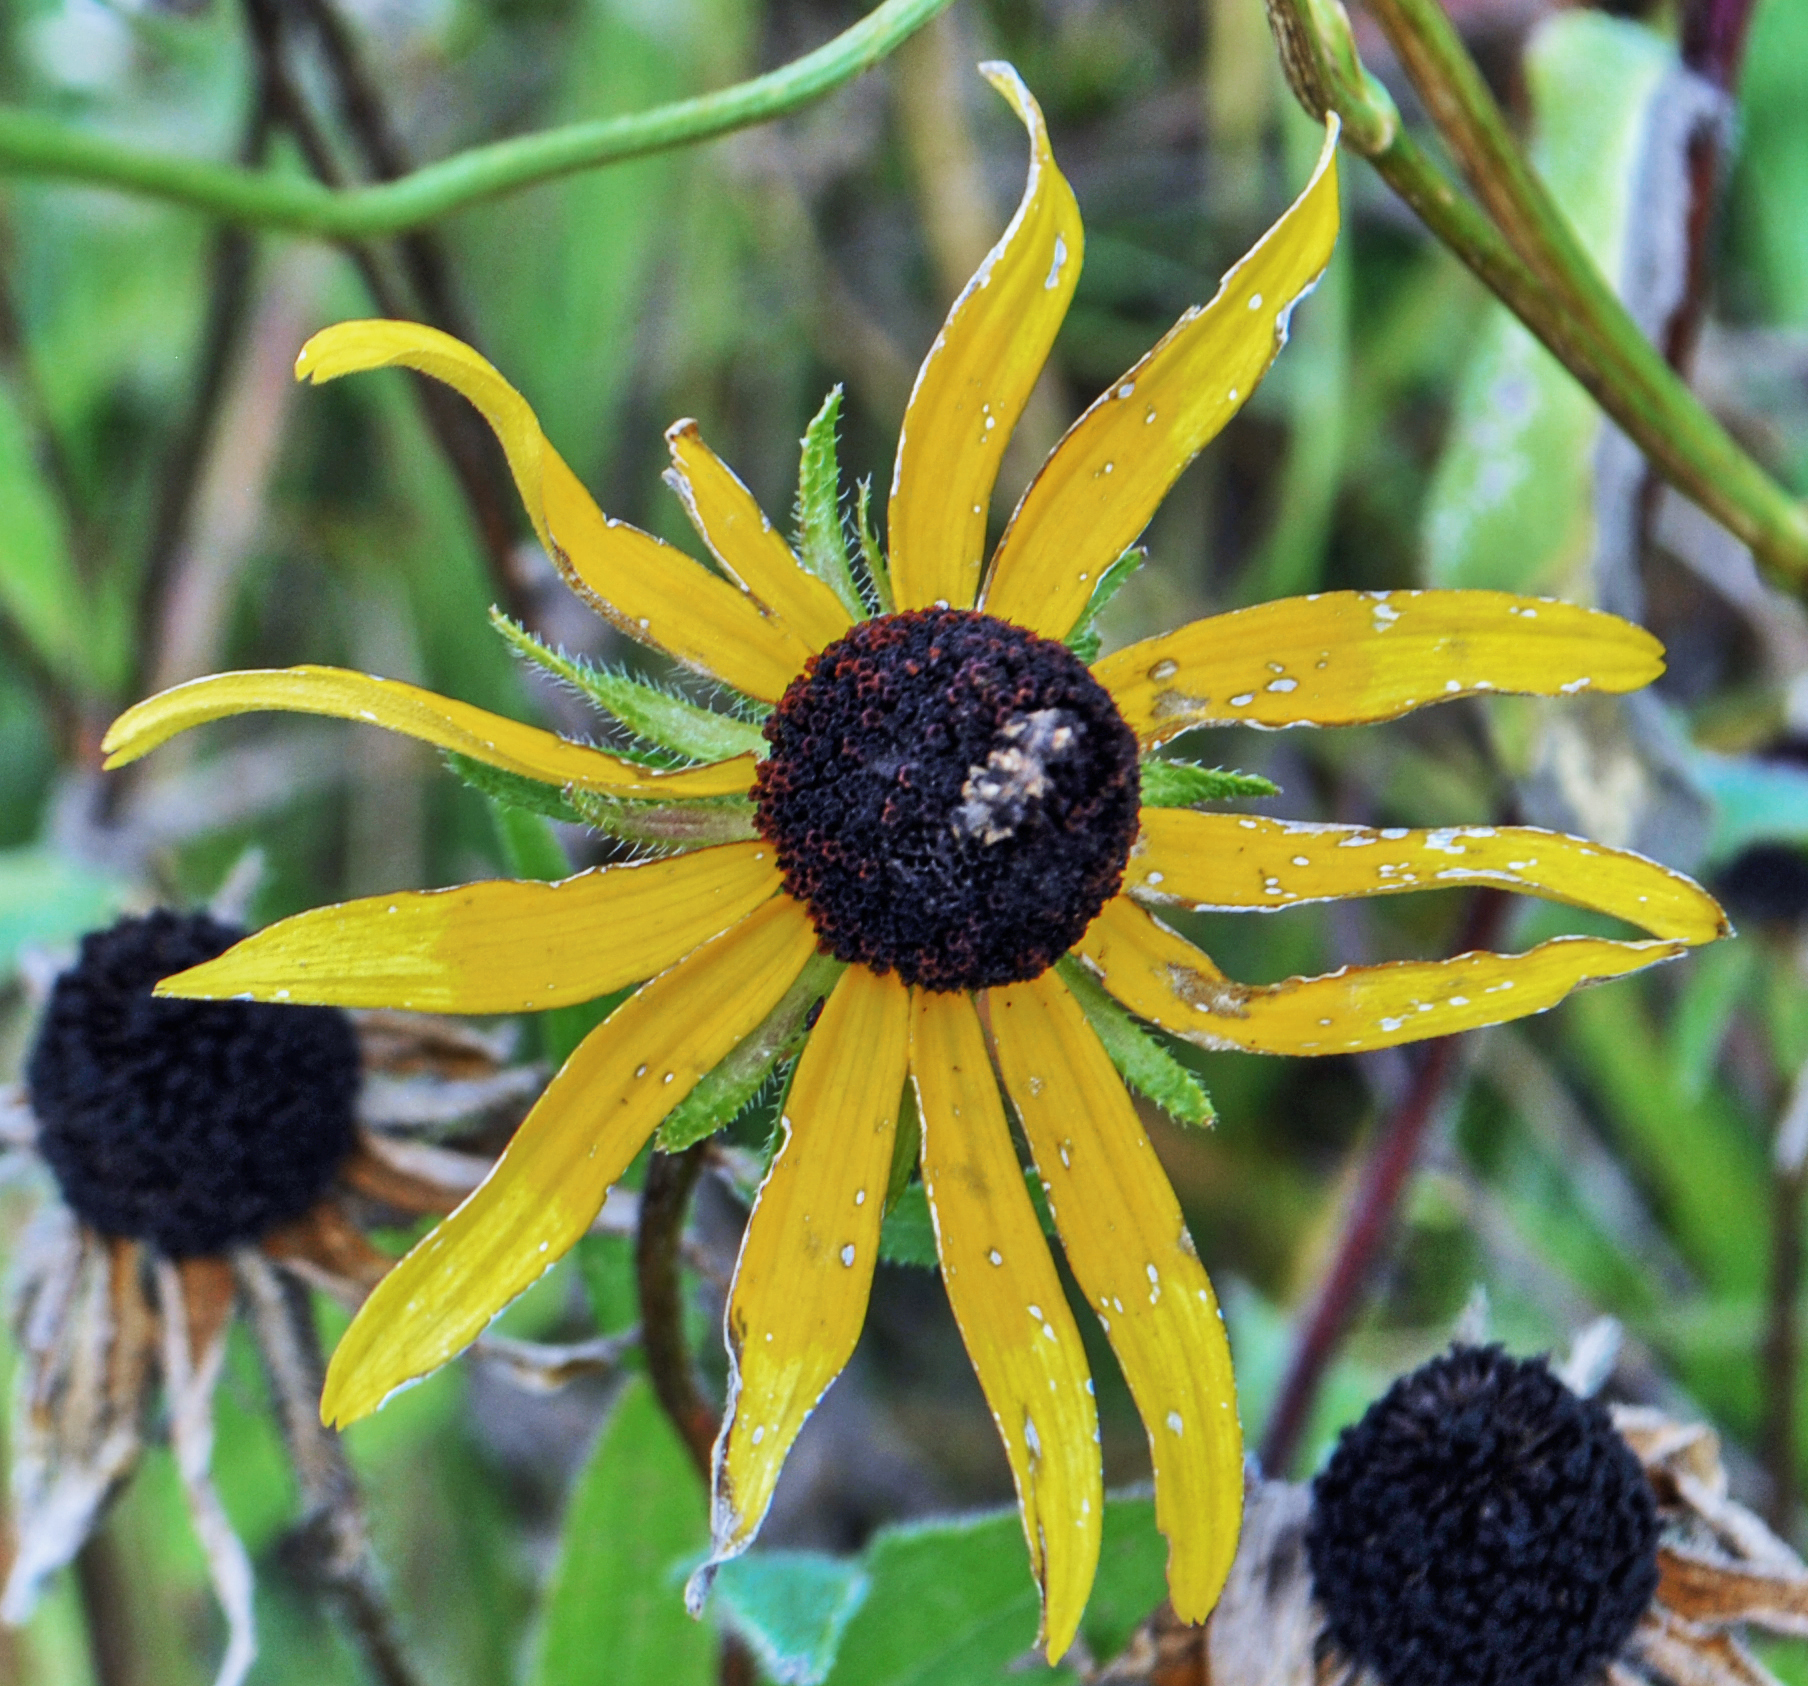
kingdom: Plantae
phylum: Tracheophyta
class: Magnoliopsida
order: Asterales
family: Asteraceae
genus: Rudbeckia
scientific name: Rudbeckia hirta
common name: Black-eyed-susan
